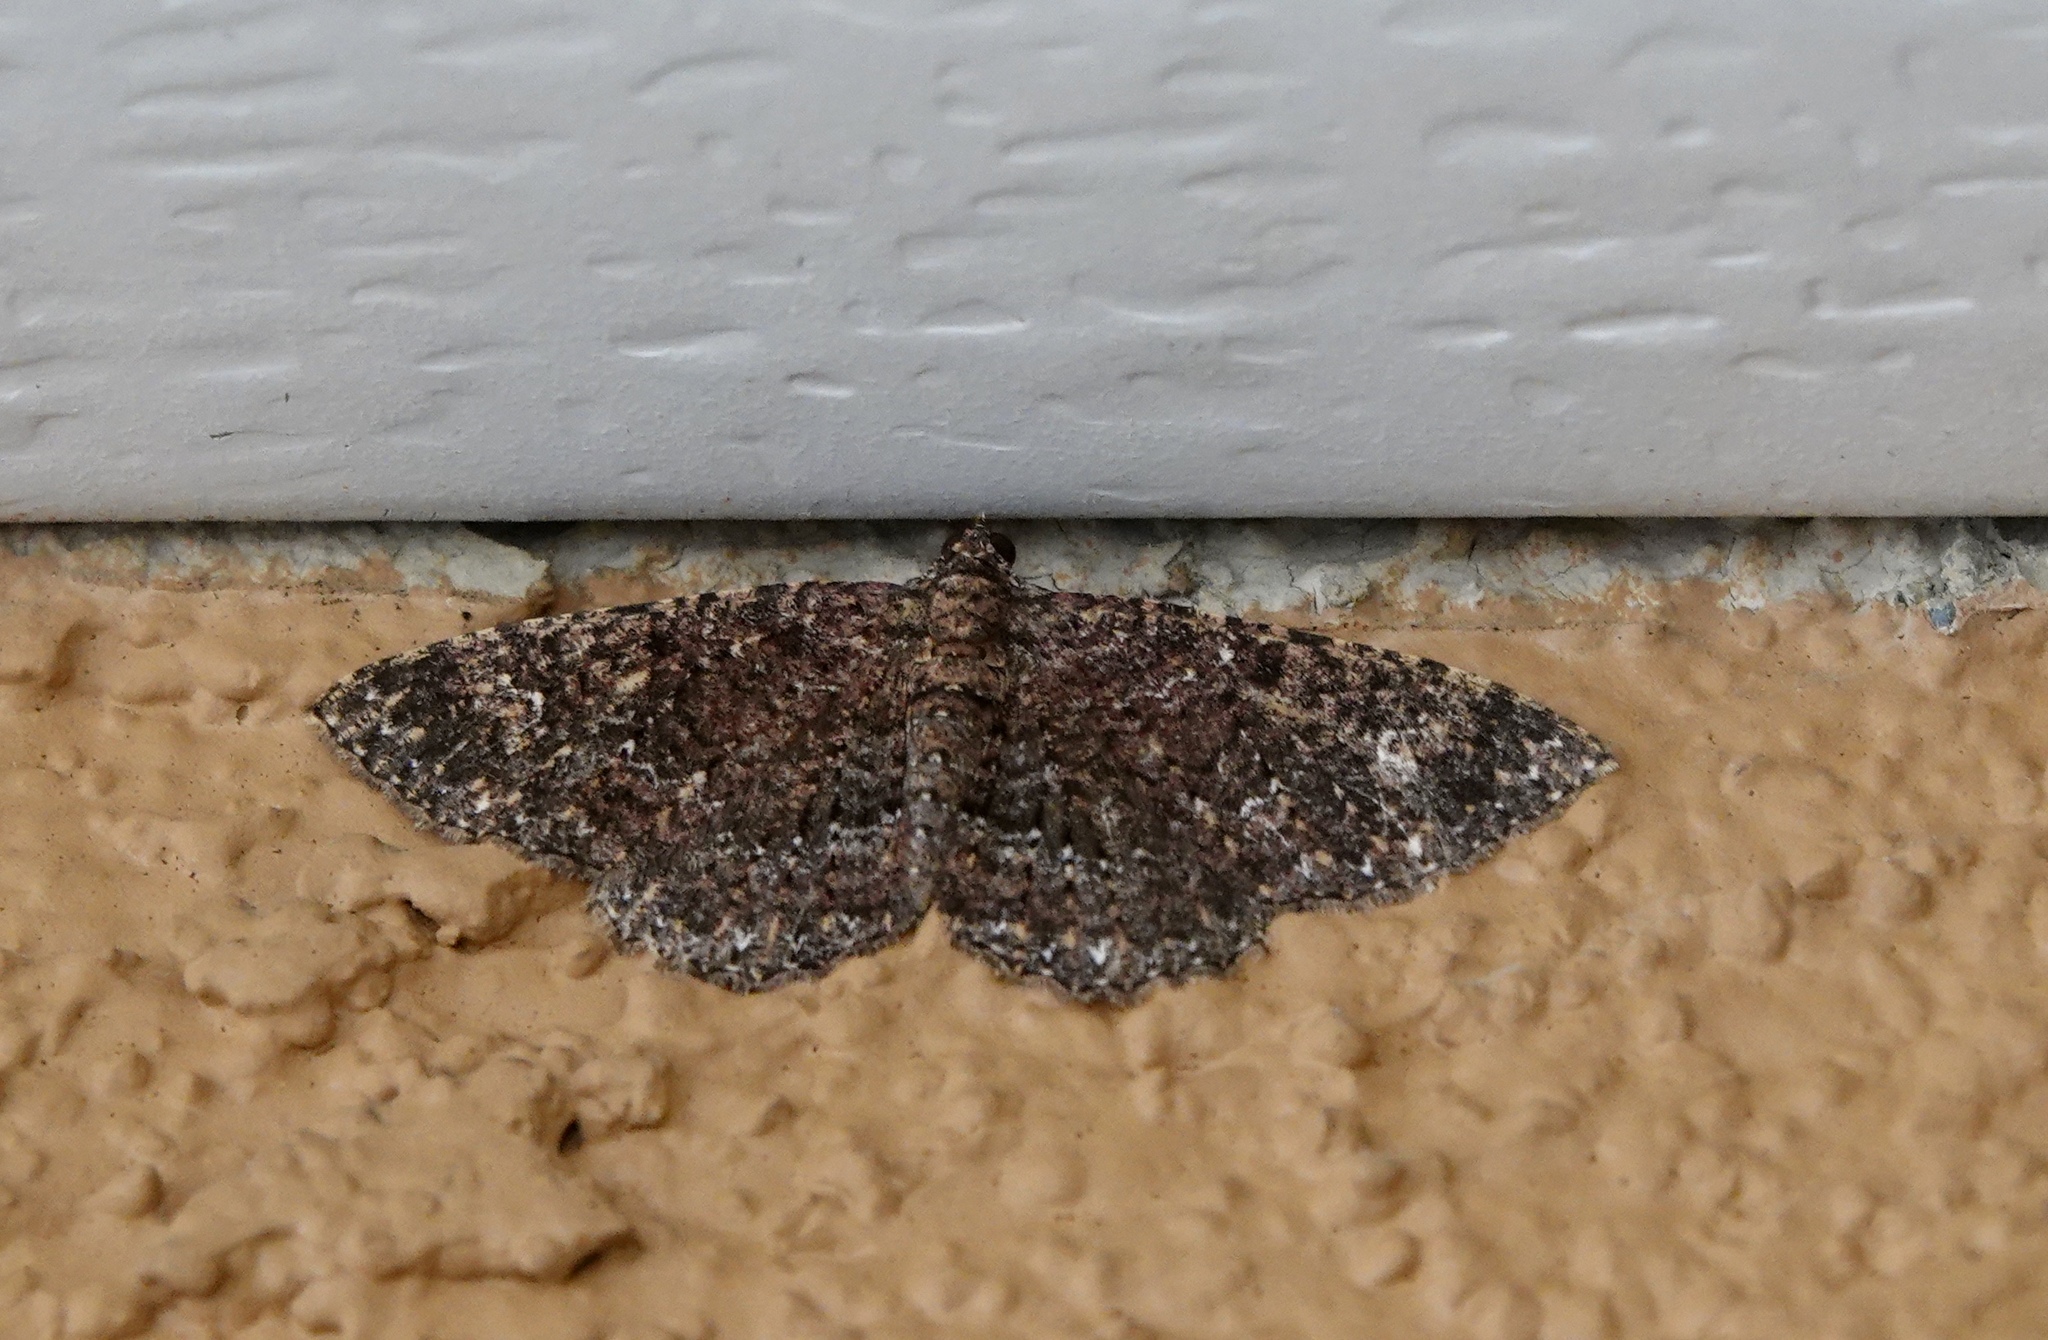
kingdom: Animalia
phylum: Arthropoda
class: Insecta
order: Lepidoptera
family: Geometridae
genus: Disclisioprocta
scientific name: Disclisioprocta stellata
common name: Somber carpet
